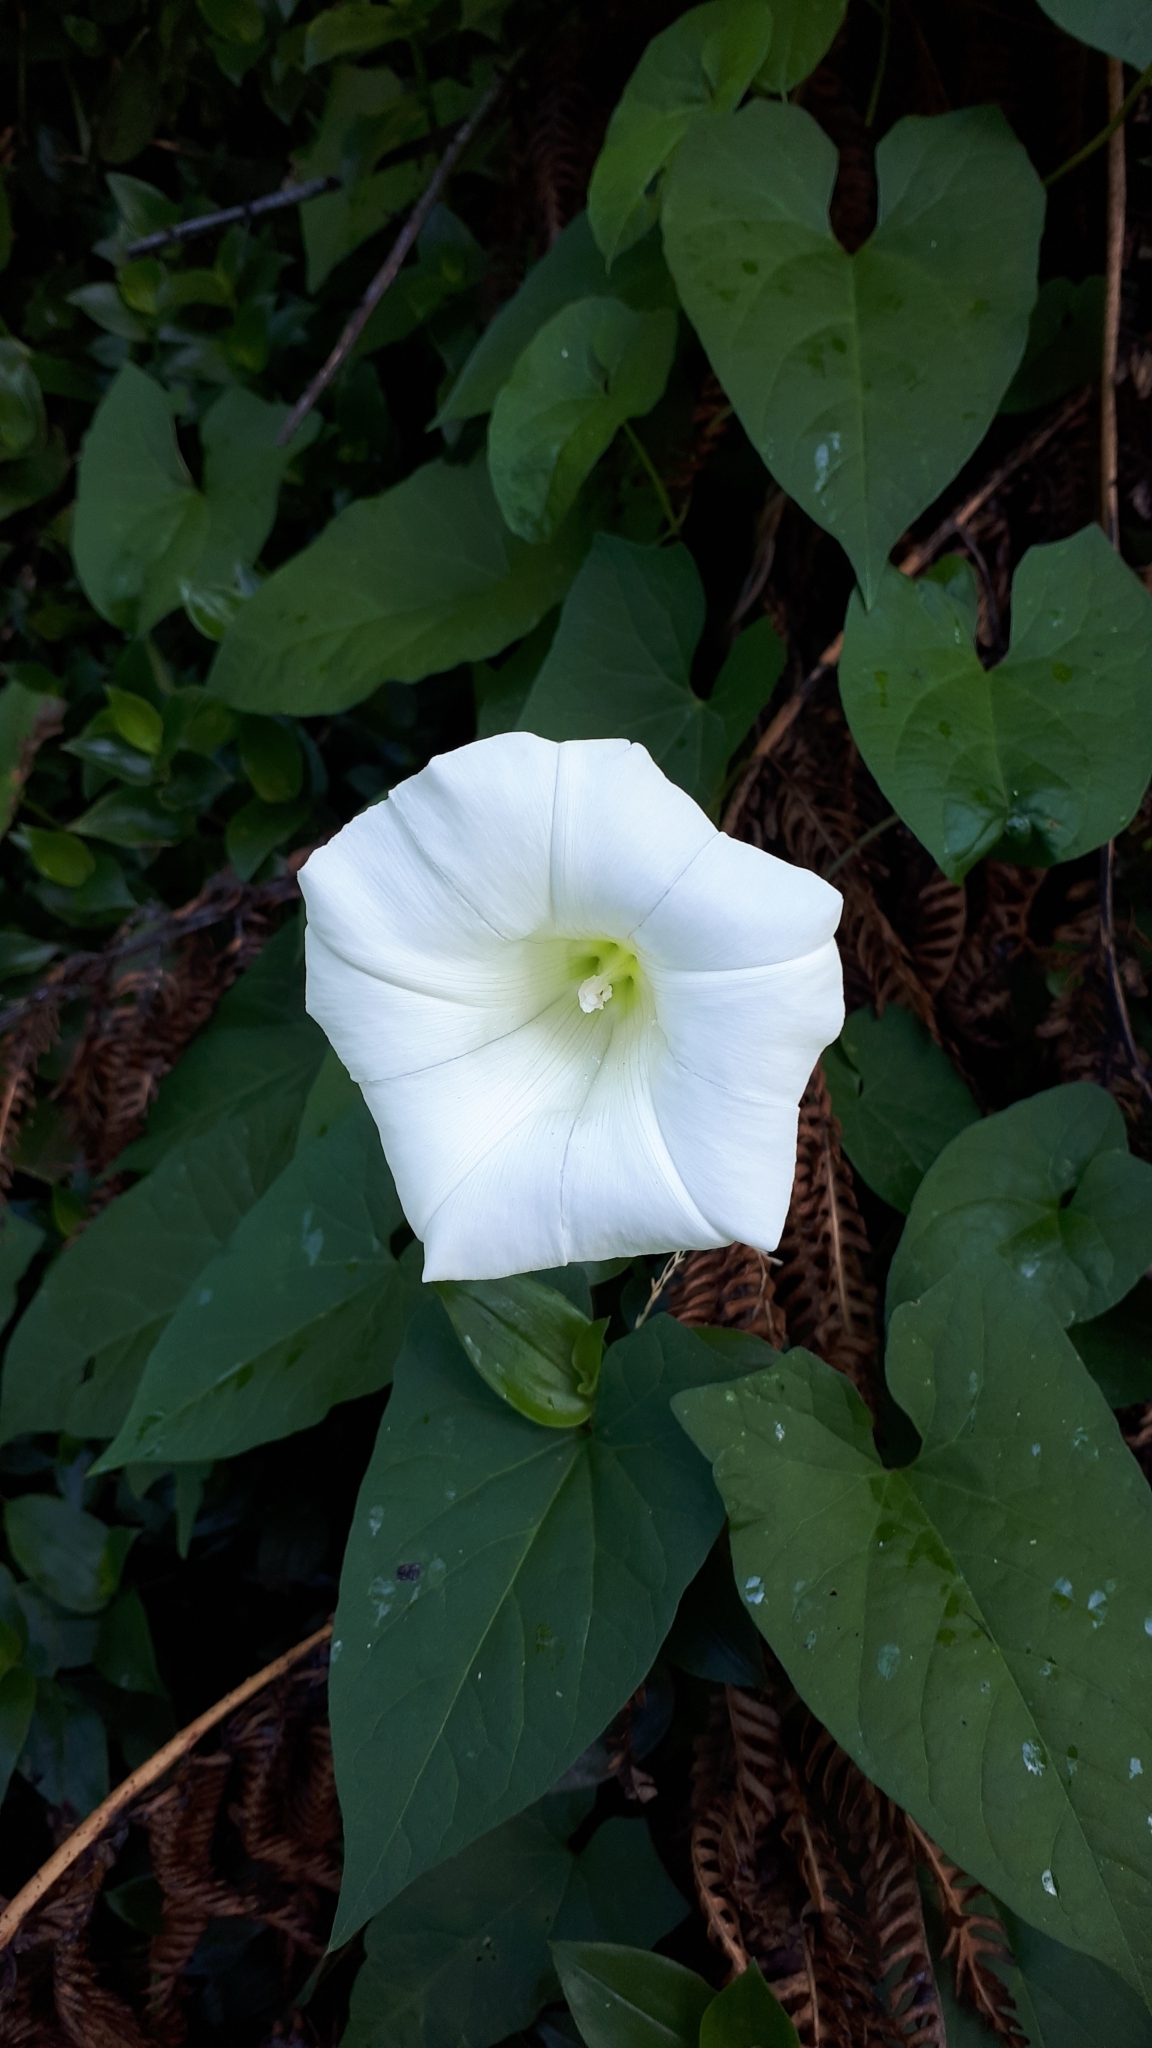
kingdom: Plantae
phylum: Tracheophyta
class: Magnoliopsida
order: Solanales
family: Convolvulaceae
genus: Calystegia
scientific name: Calystegia silvatica
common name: Large bindweed
